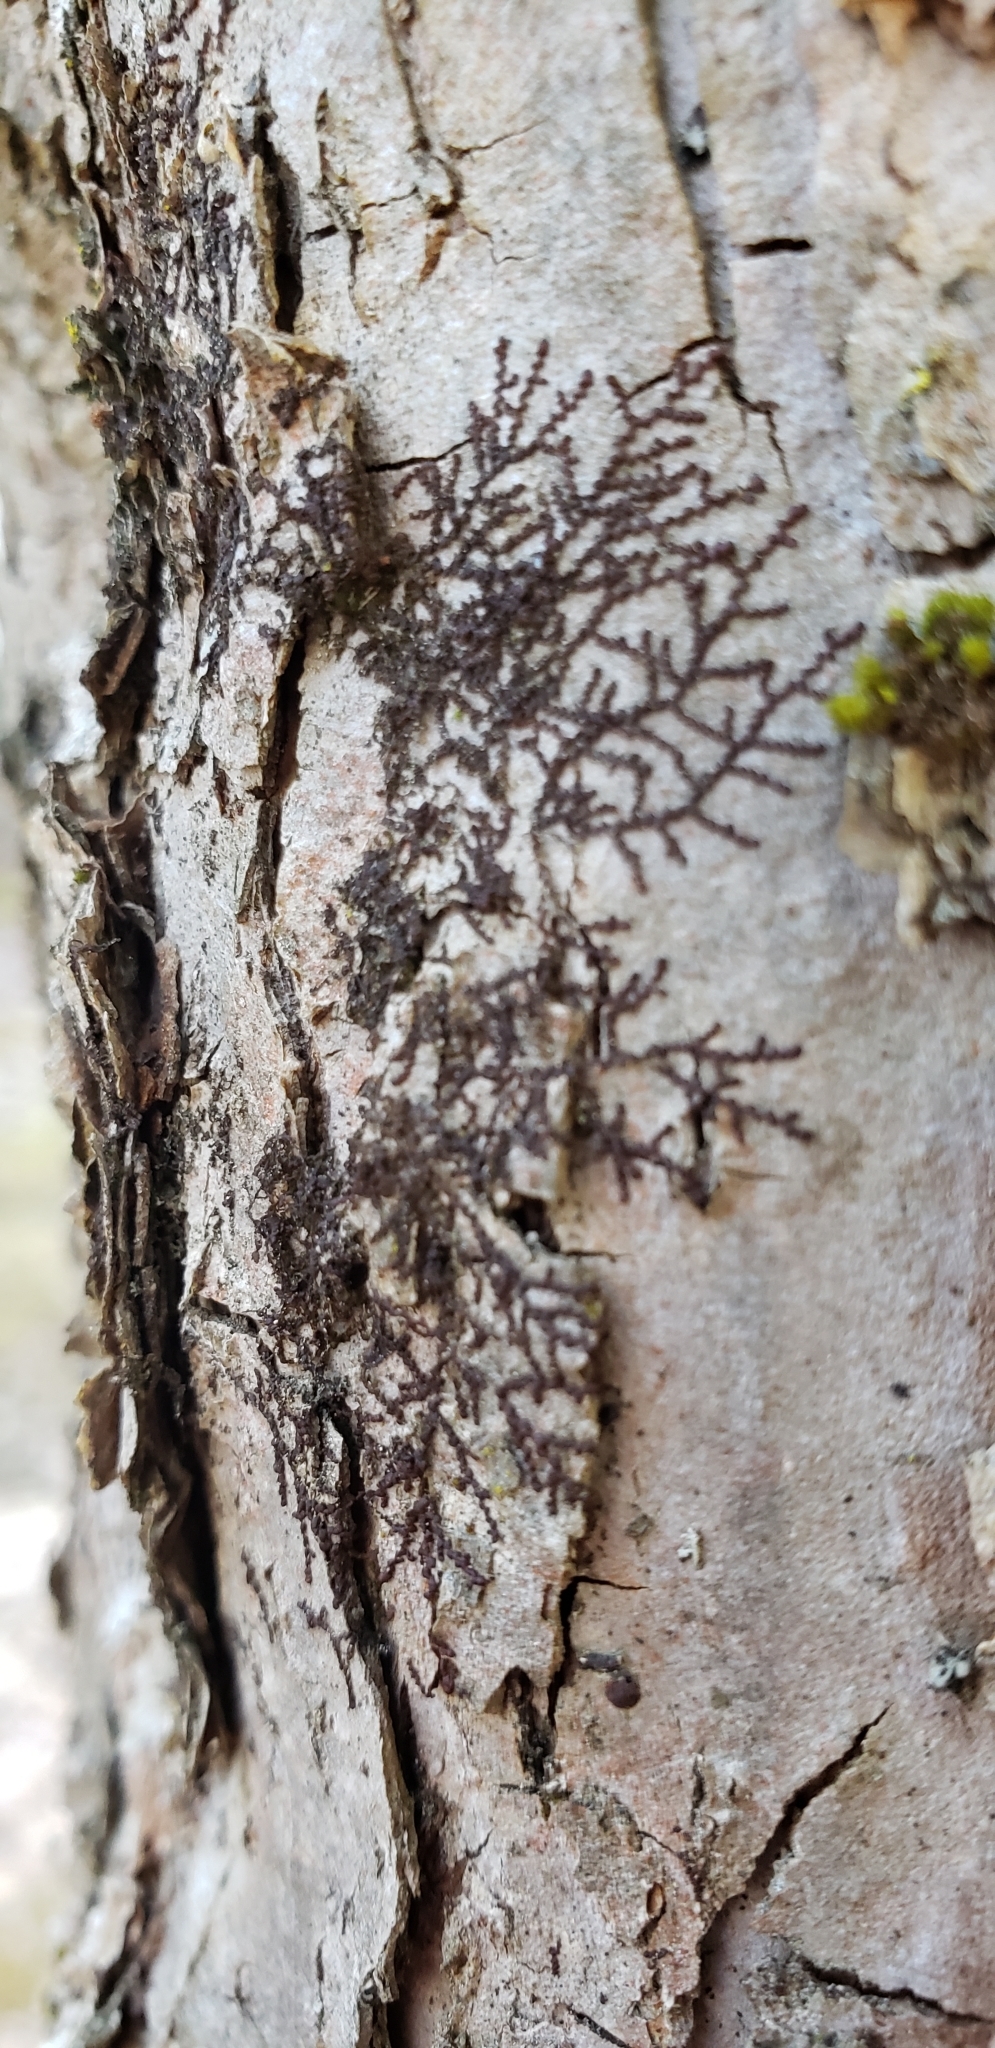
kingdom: Plantae
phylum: Marchantiophyta
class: Jungermanniopsida
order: Porellales
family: Frullaniaceae
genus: Frullania
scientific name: Frullania eboracensis
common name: New york scalewort
